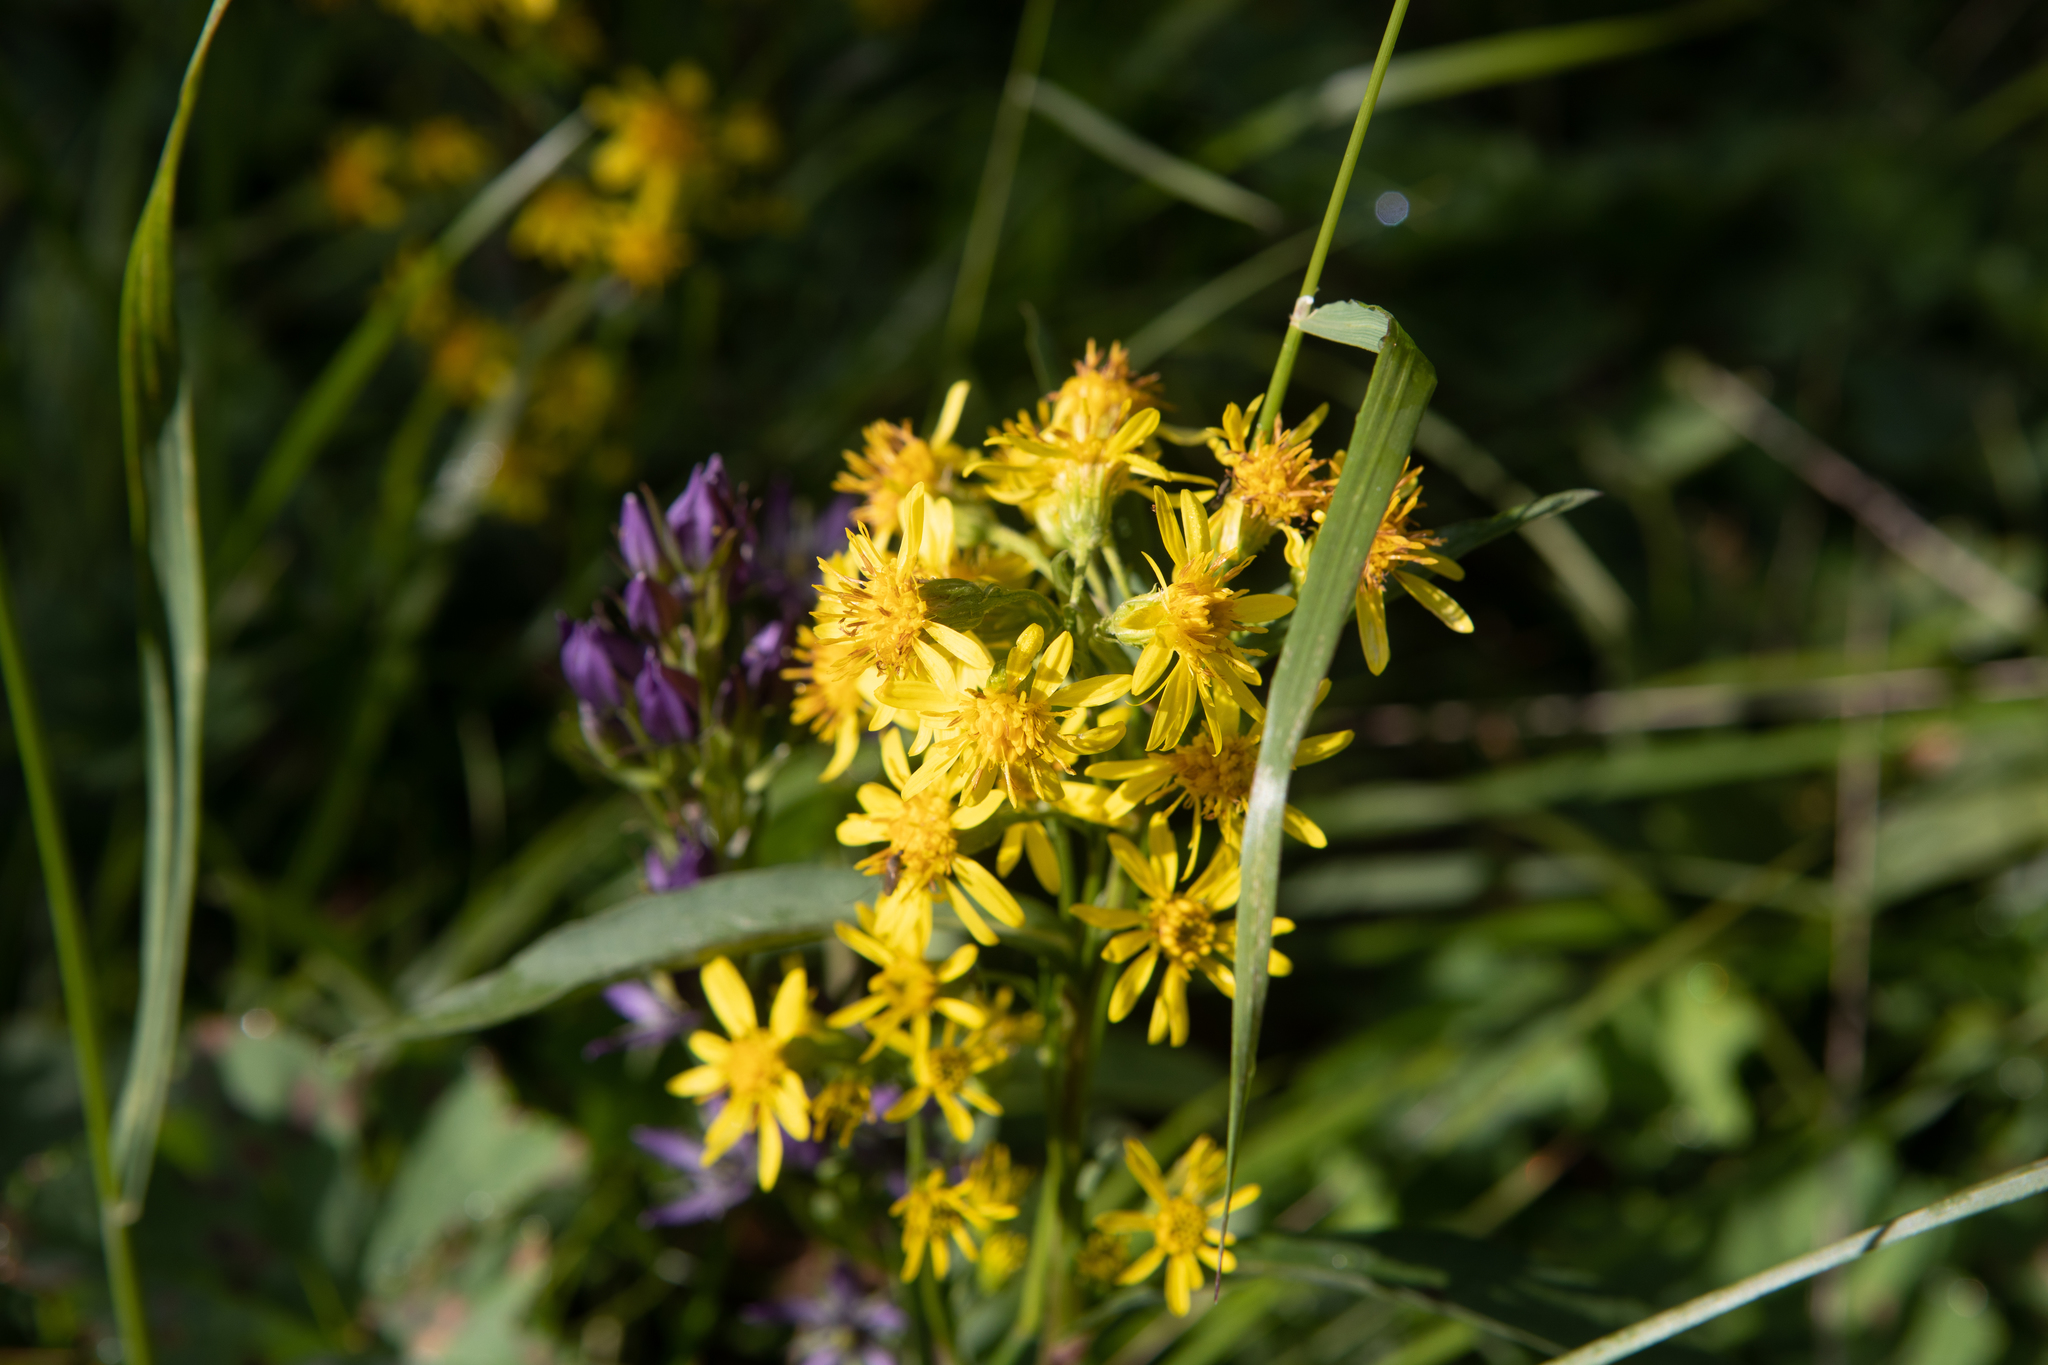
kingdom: Plantae
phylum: Tracheophyta
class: Magnoliopsida
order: Asterales
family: Asteraceae
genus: Solidago
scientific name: Solidago virgaurea
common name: Goldenrod
